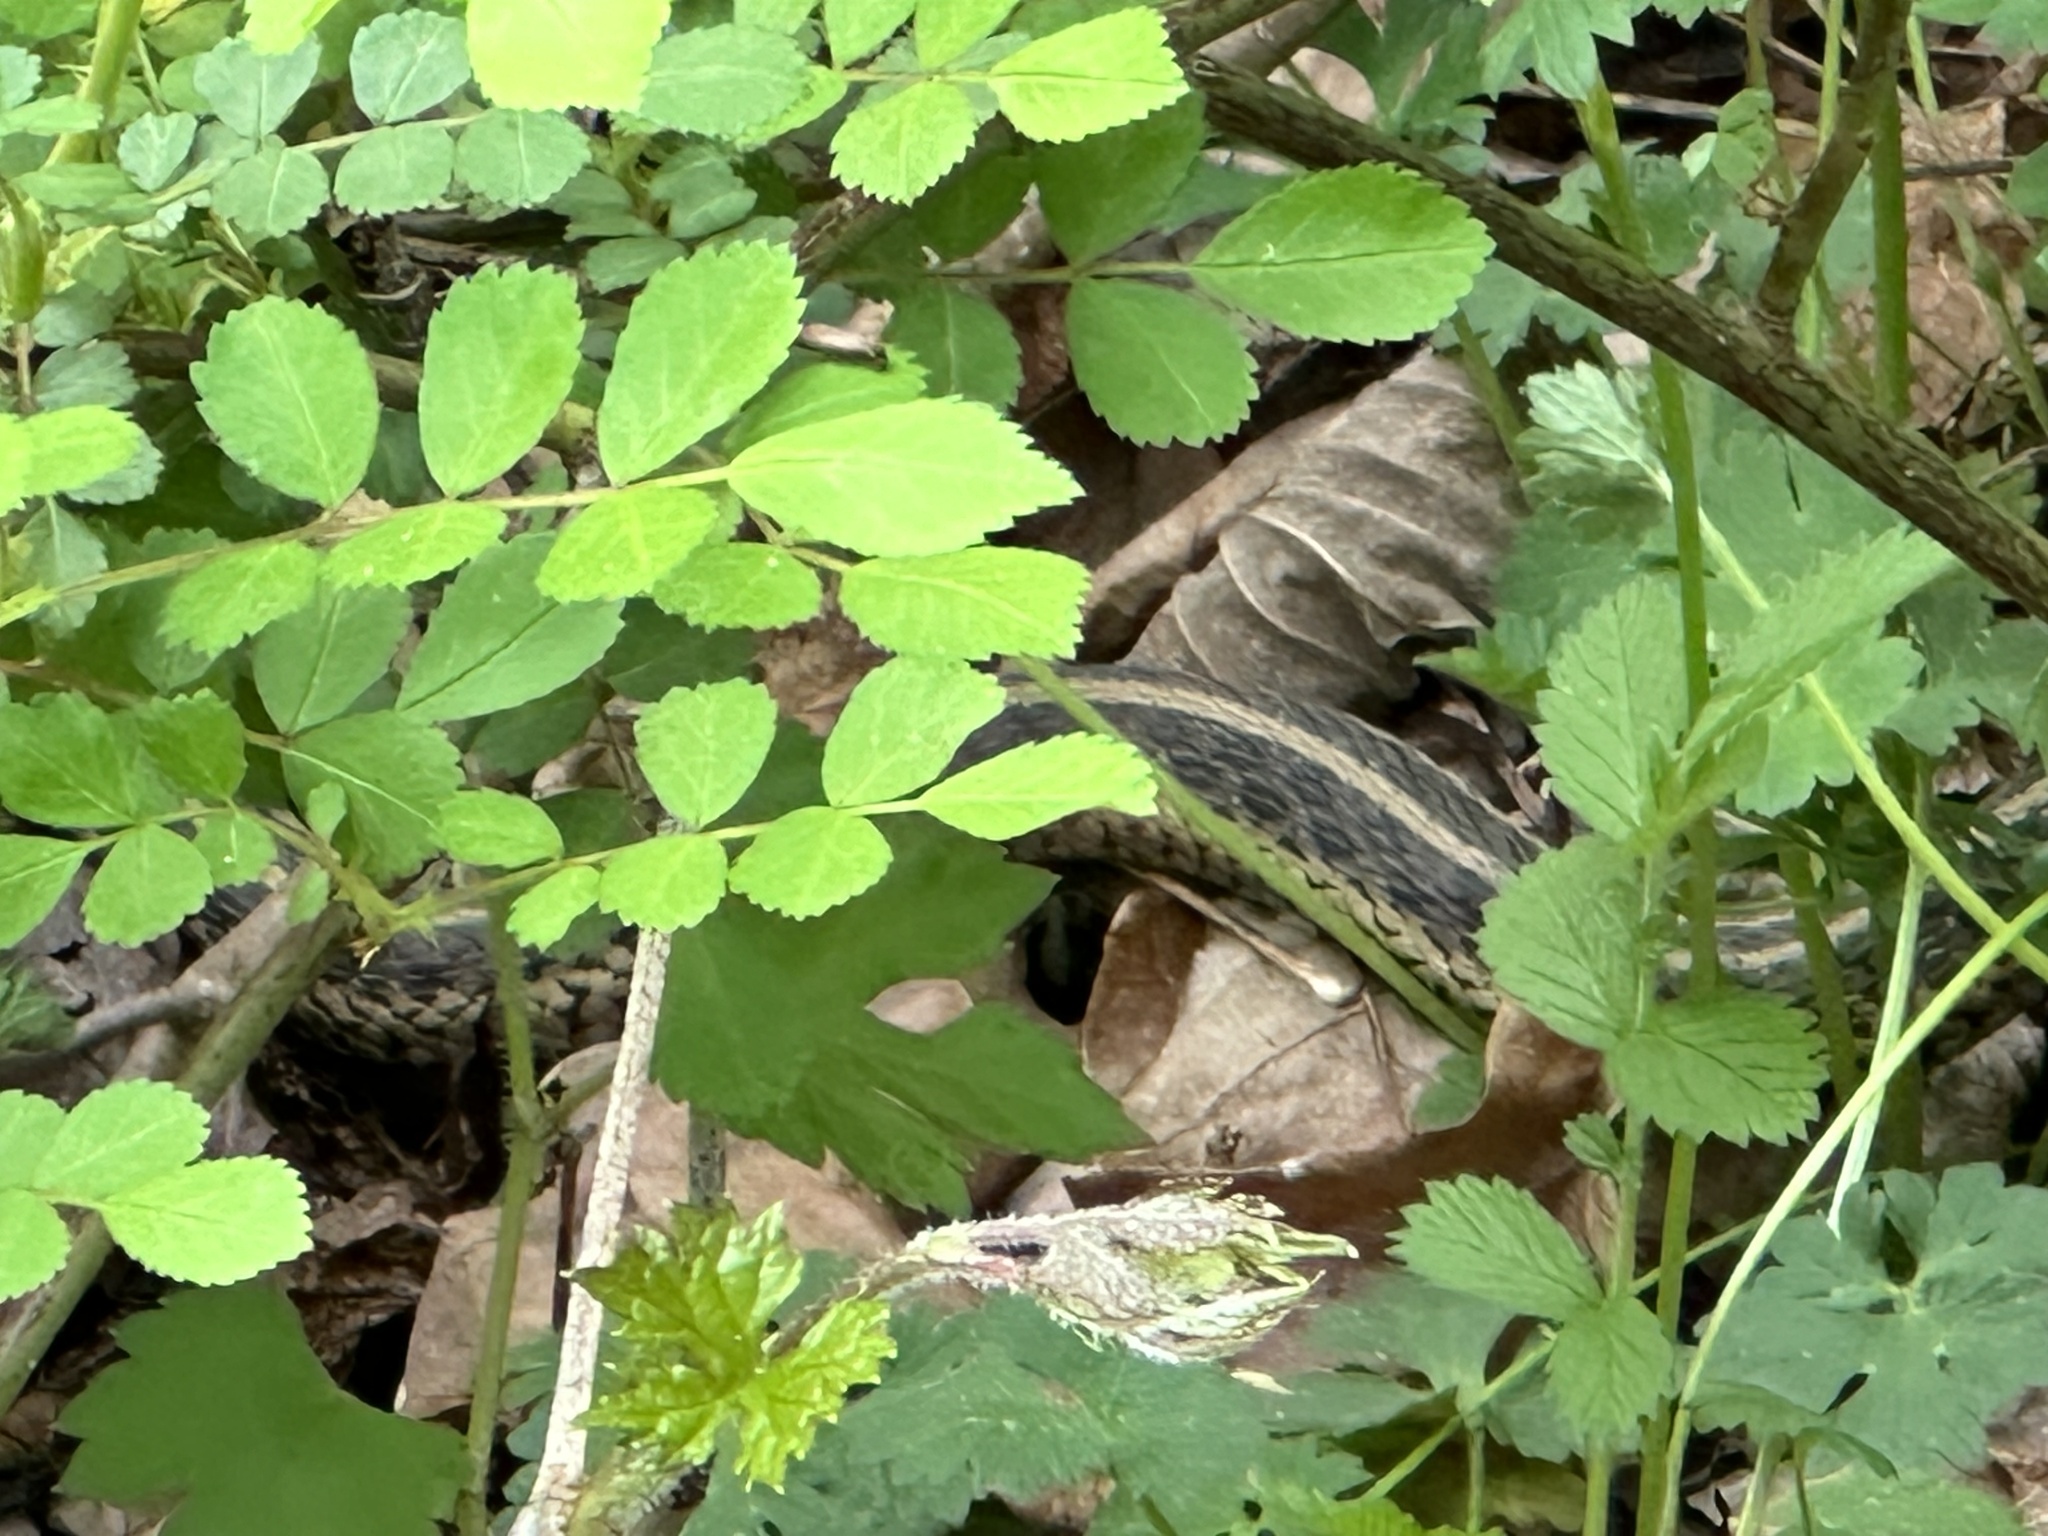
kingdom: Animalia
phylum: Chordata
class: Squamata
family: Colubridae
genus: Thamnophis
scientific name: Thamnophis sirtalis
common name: Common garter snake
